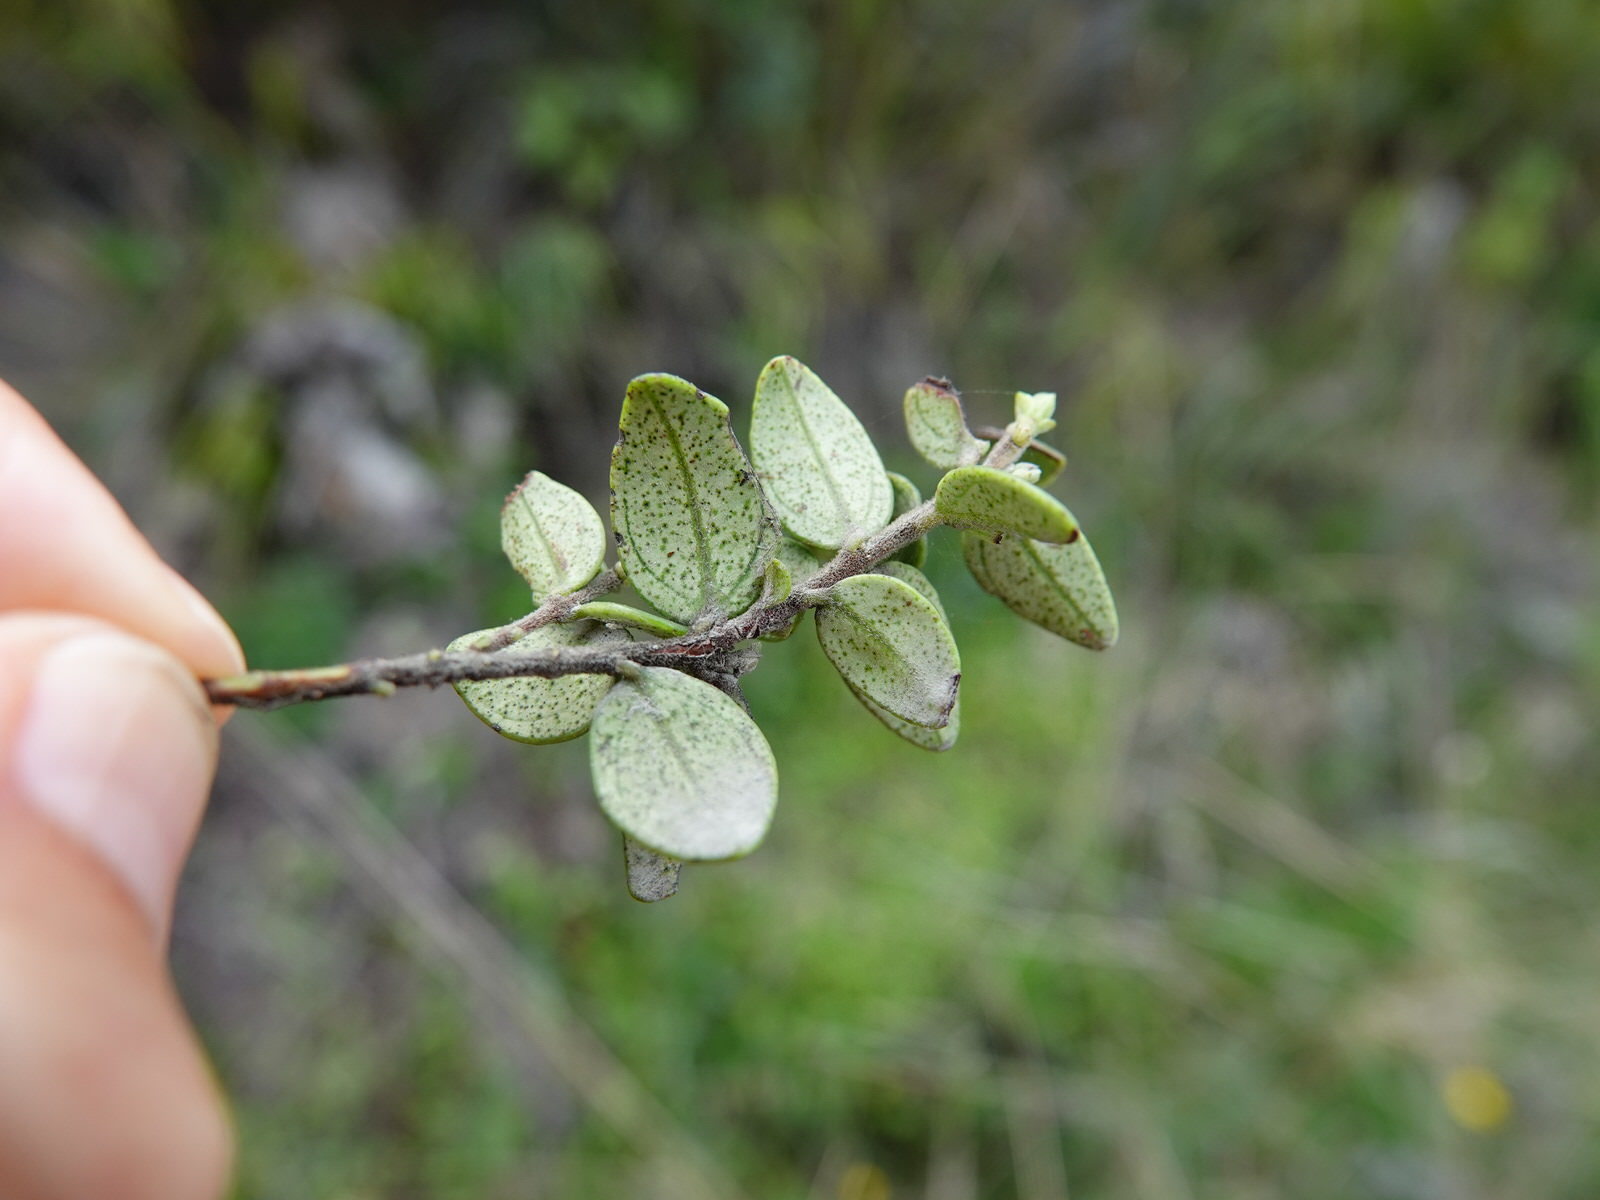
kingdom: Plantae
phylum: Tracheophyta
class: Magnoliopsida
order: Myrtales
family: Myrtaceae
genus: Metrosideros
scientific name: Metrosideros perforata
